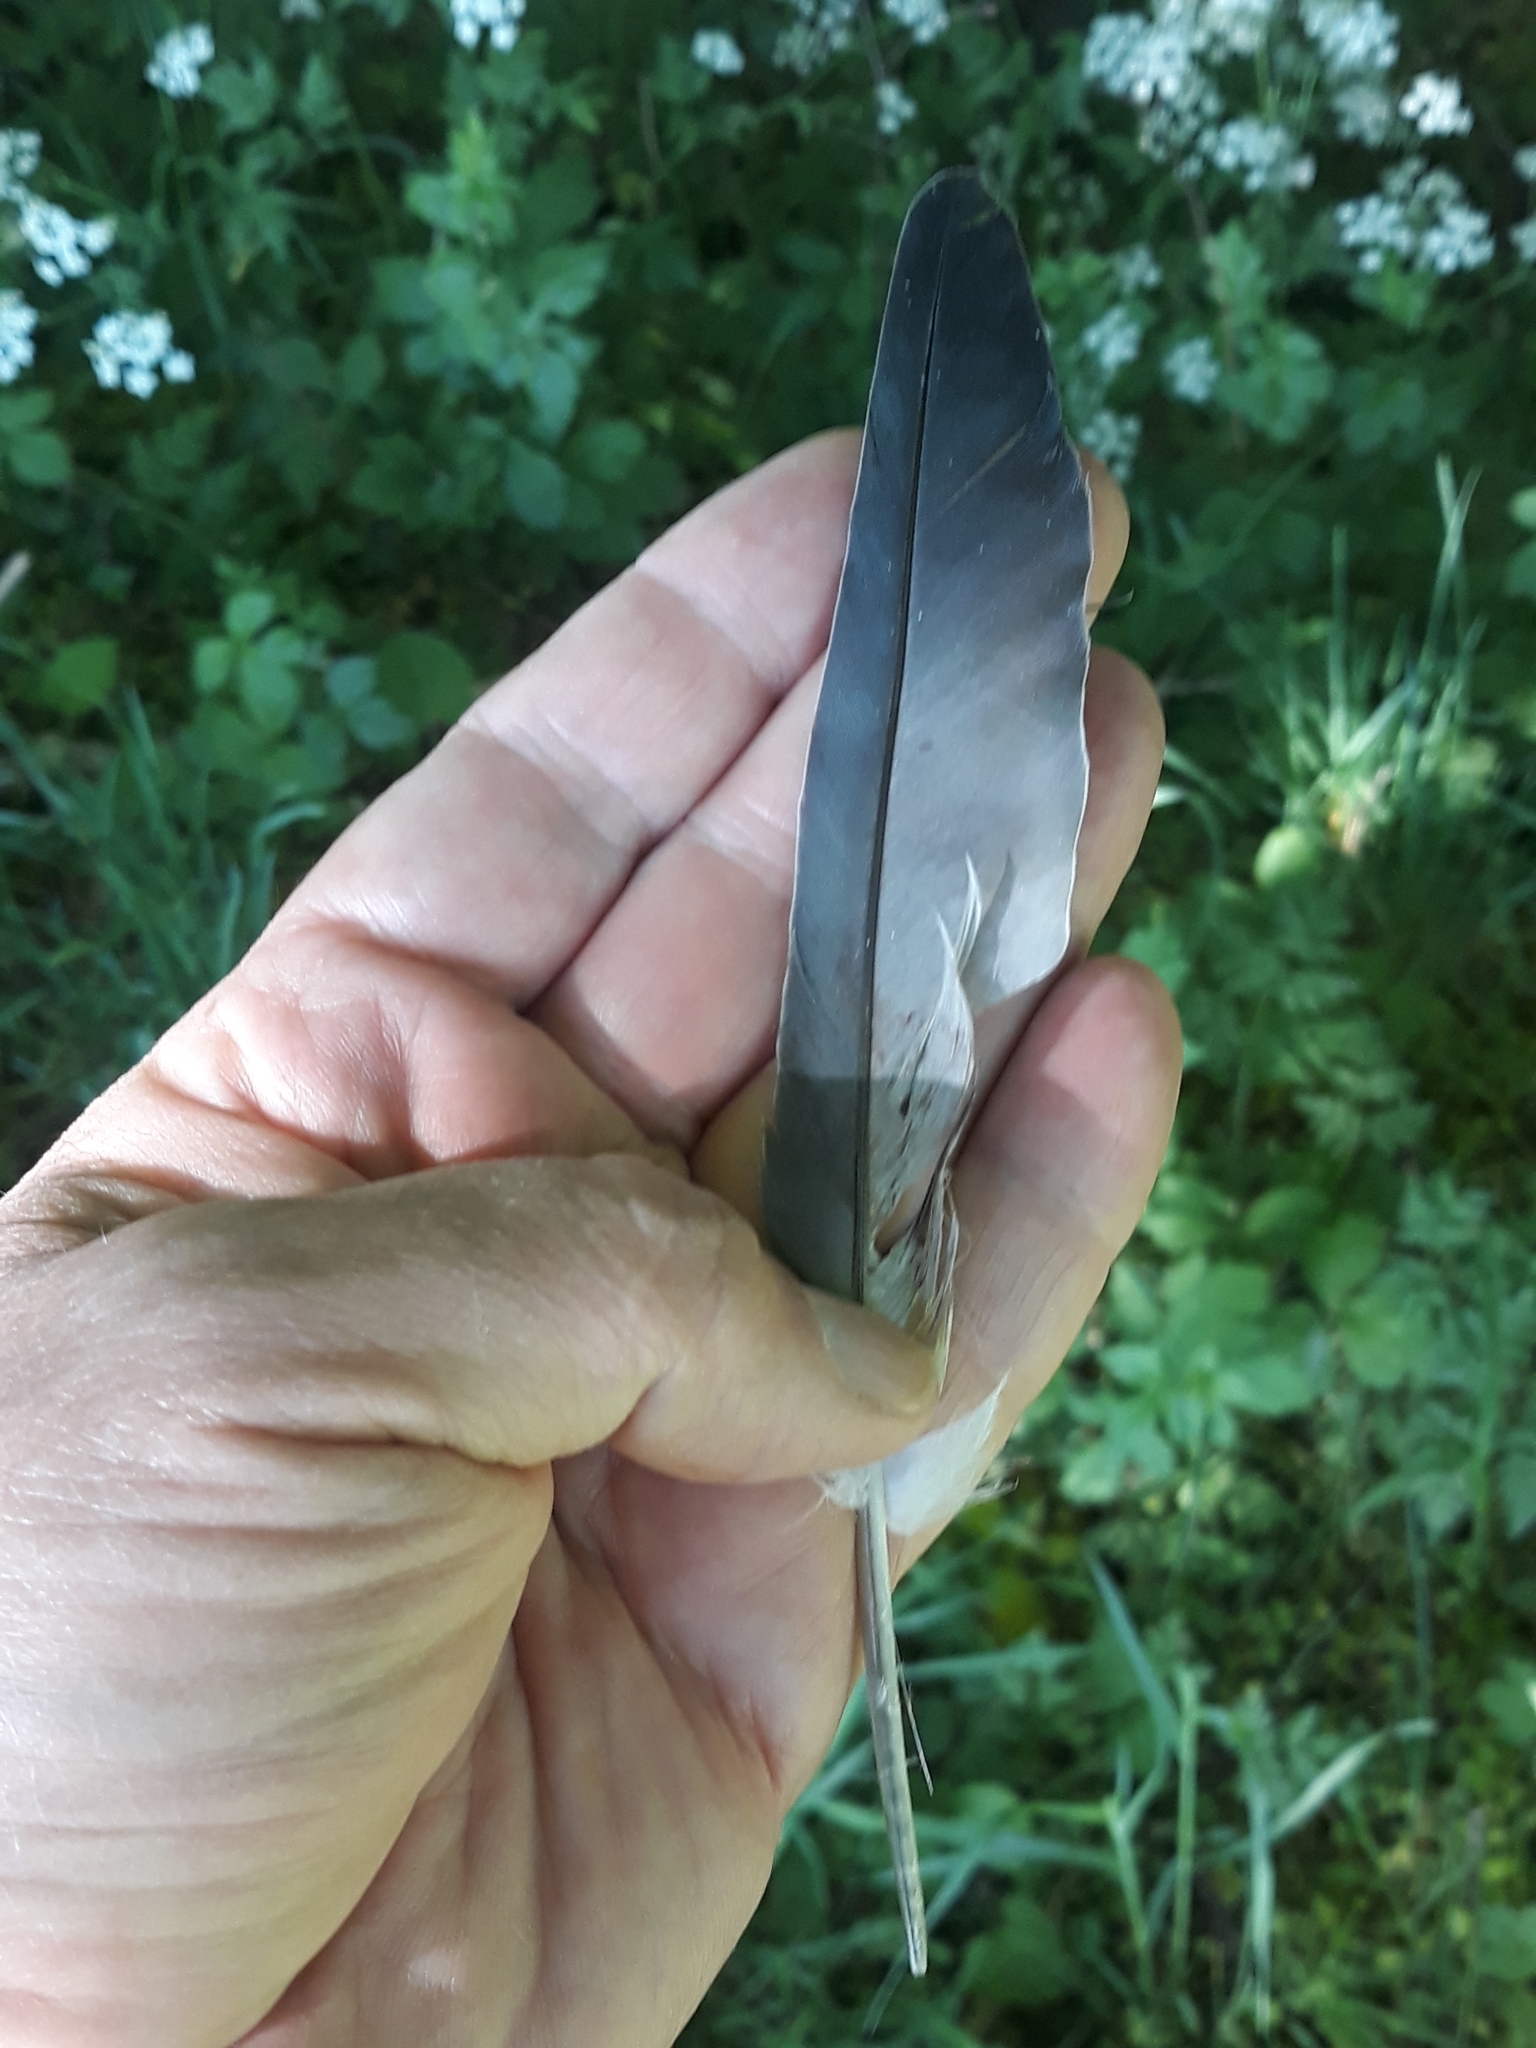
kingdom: Animalia
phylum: Chordata
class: Aves
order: Columbiformes
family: Columbidae
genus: Columba
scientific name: Columba livia
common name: Rock pigeon
